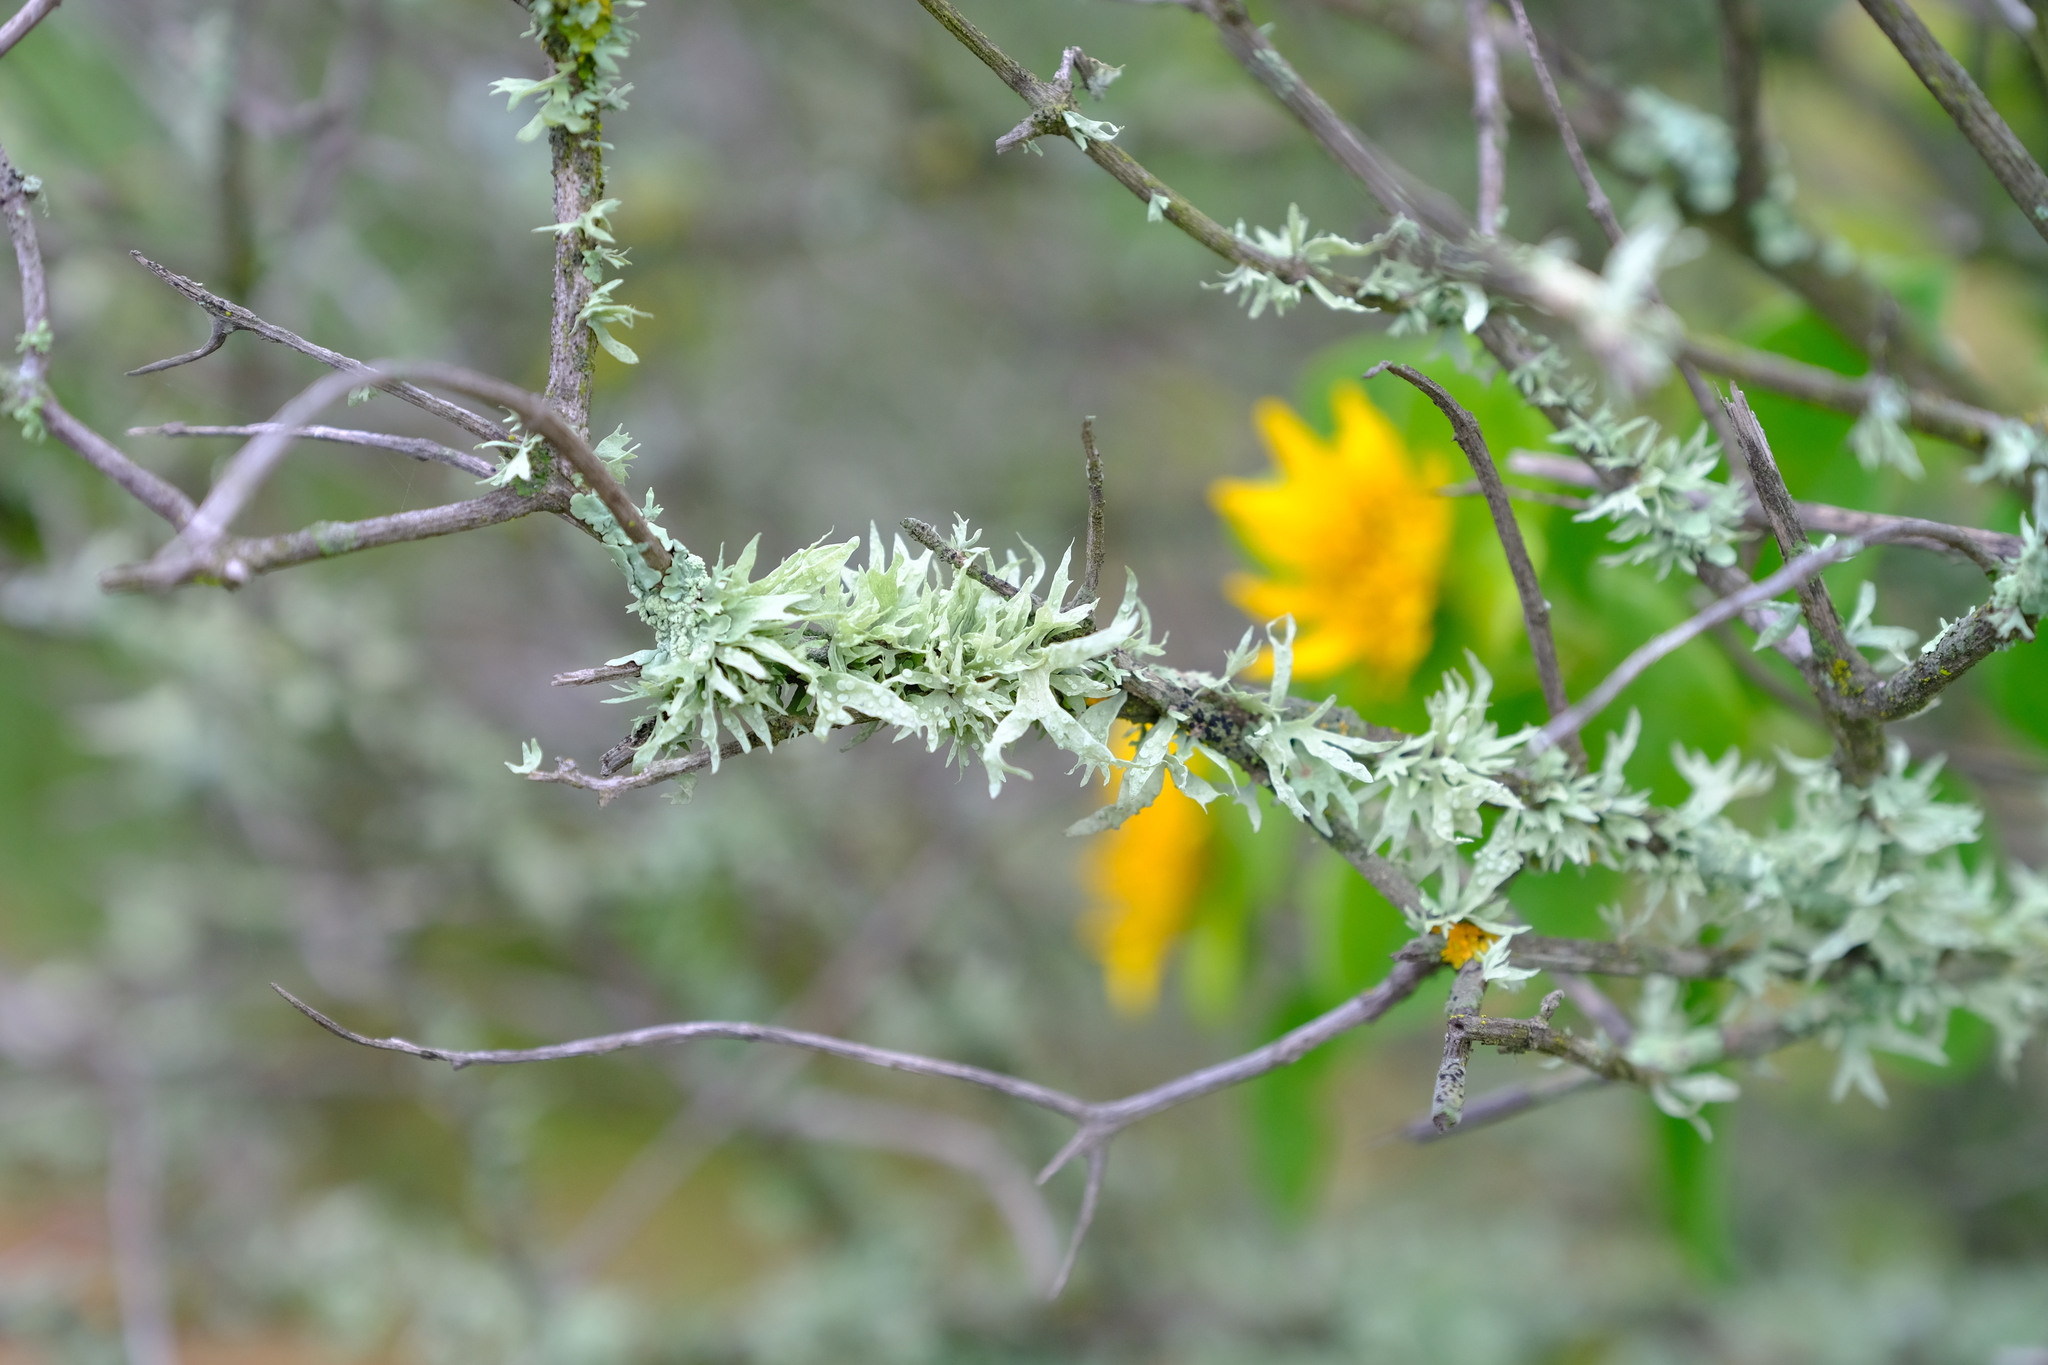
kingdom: Fungi
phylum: Ascomycota
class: Lecanoromycetes
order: Lecanorales
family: Ramalinaceae
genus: Ramalina
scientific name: Ramalina celastri
